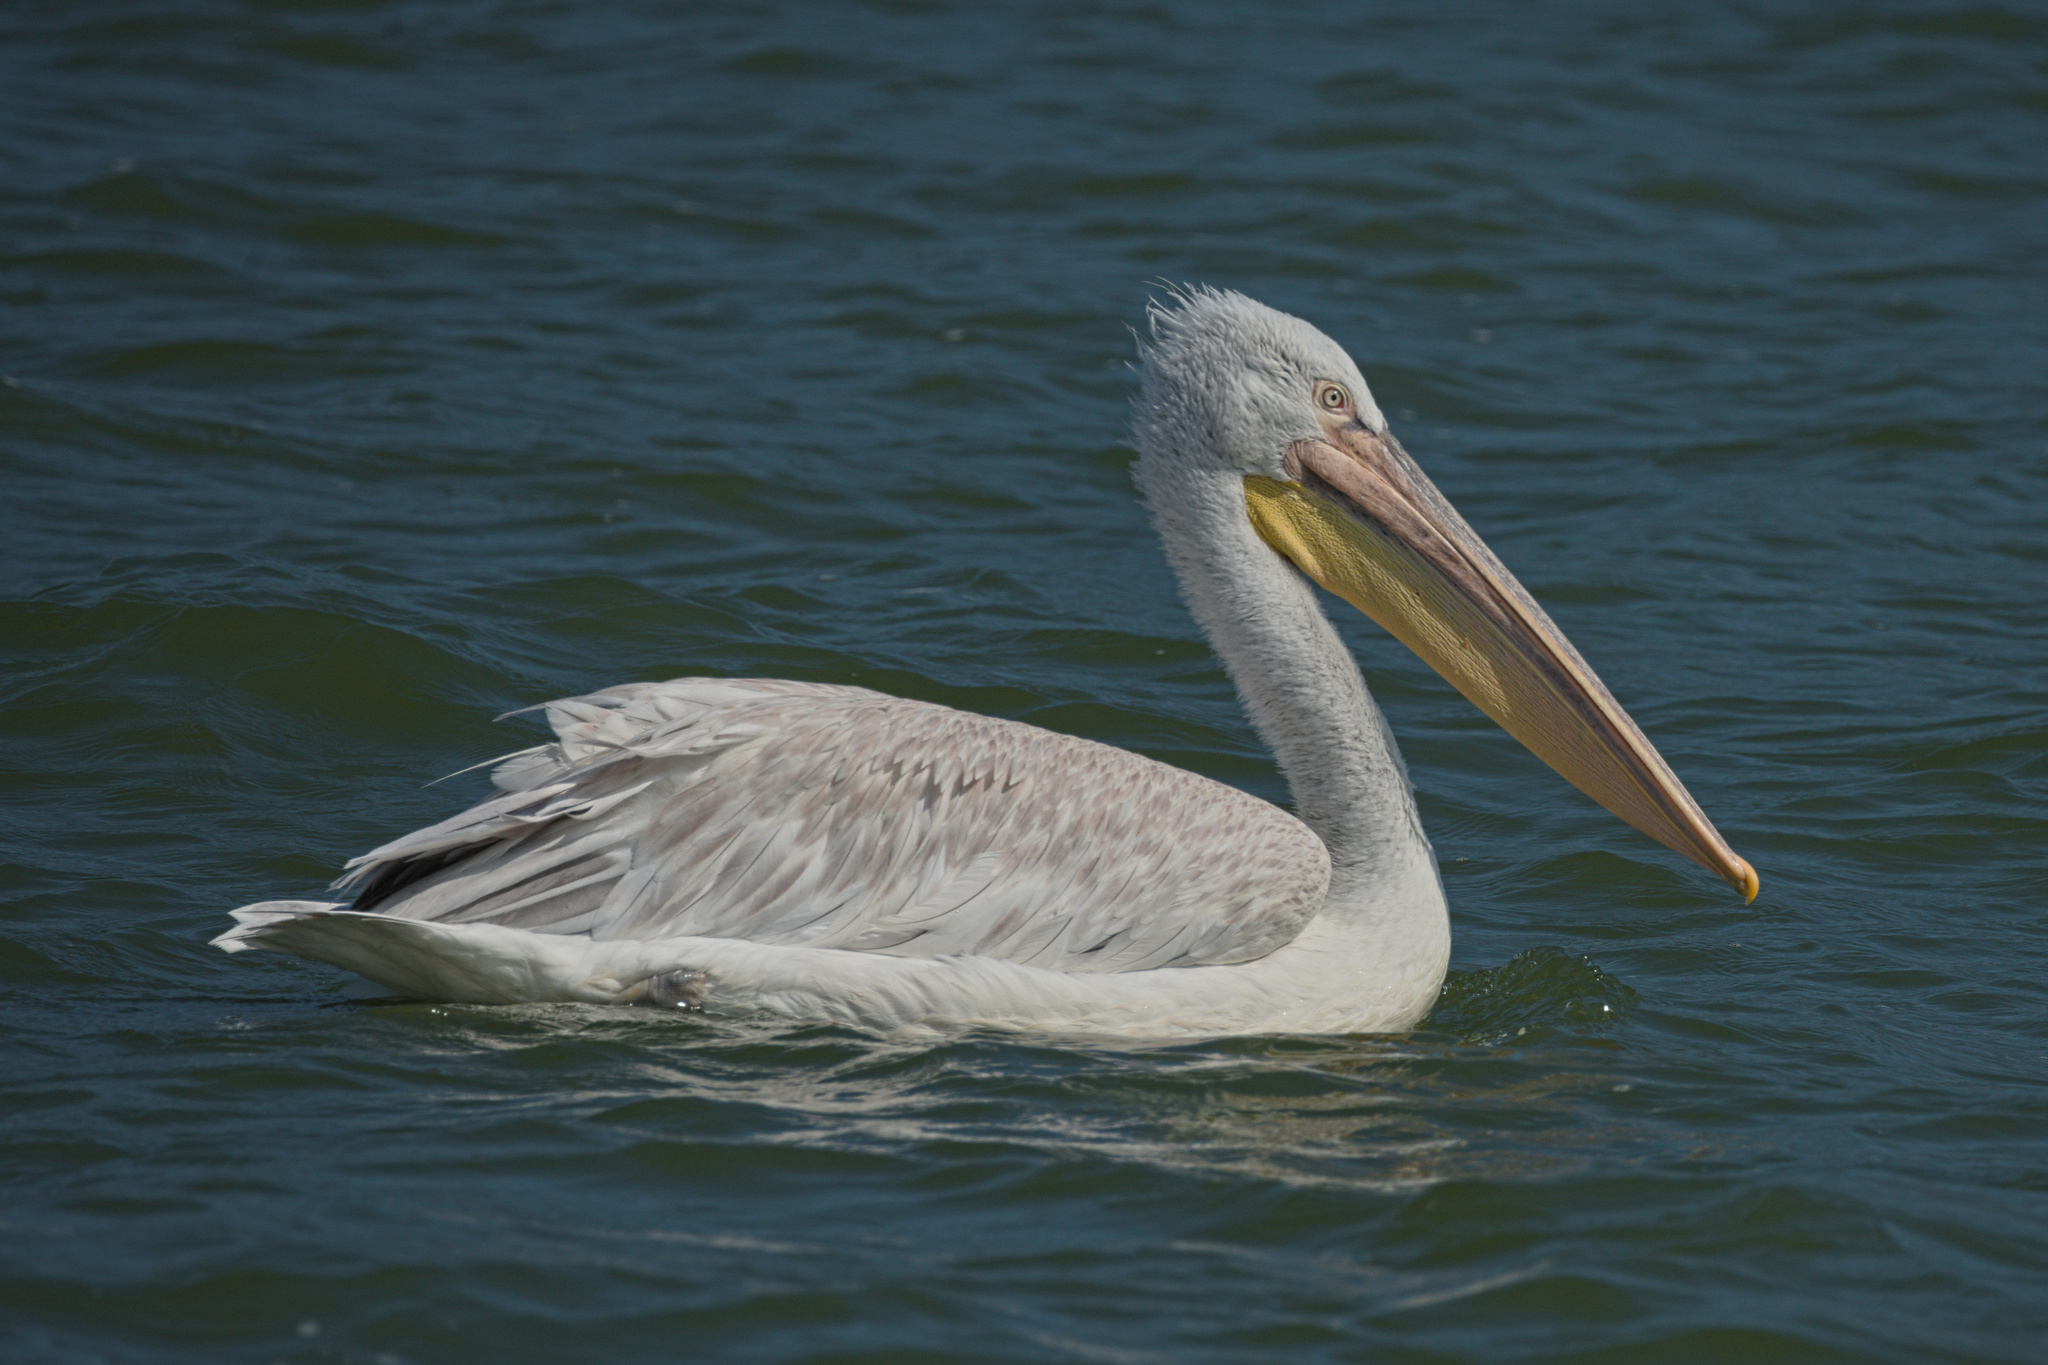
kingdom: Animalia
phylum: Chordata
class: Aves
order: Pelecaniformes
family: Pelecanidae
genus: Pelecanus
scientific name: Pelecanus crispus
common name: Dalmatian pelican
